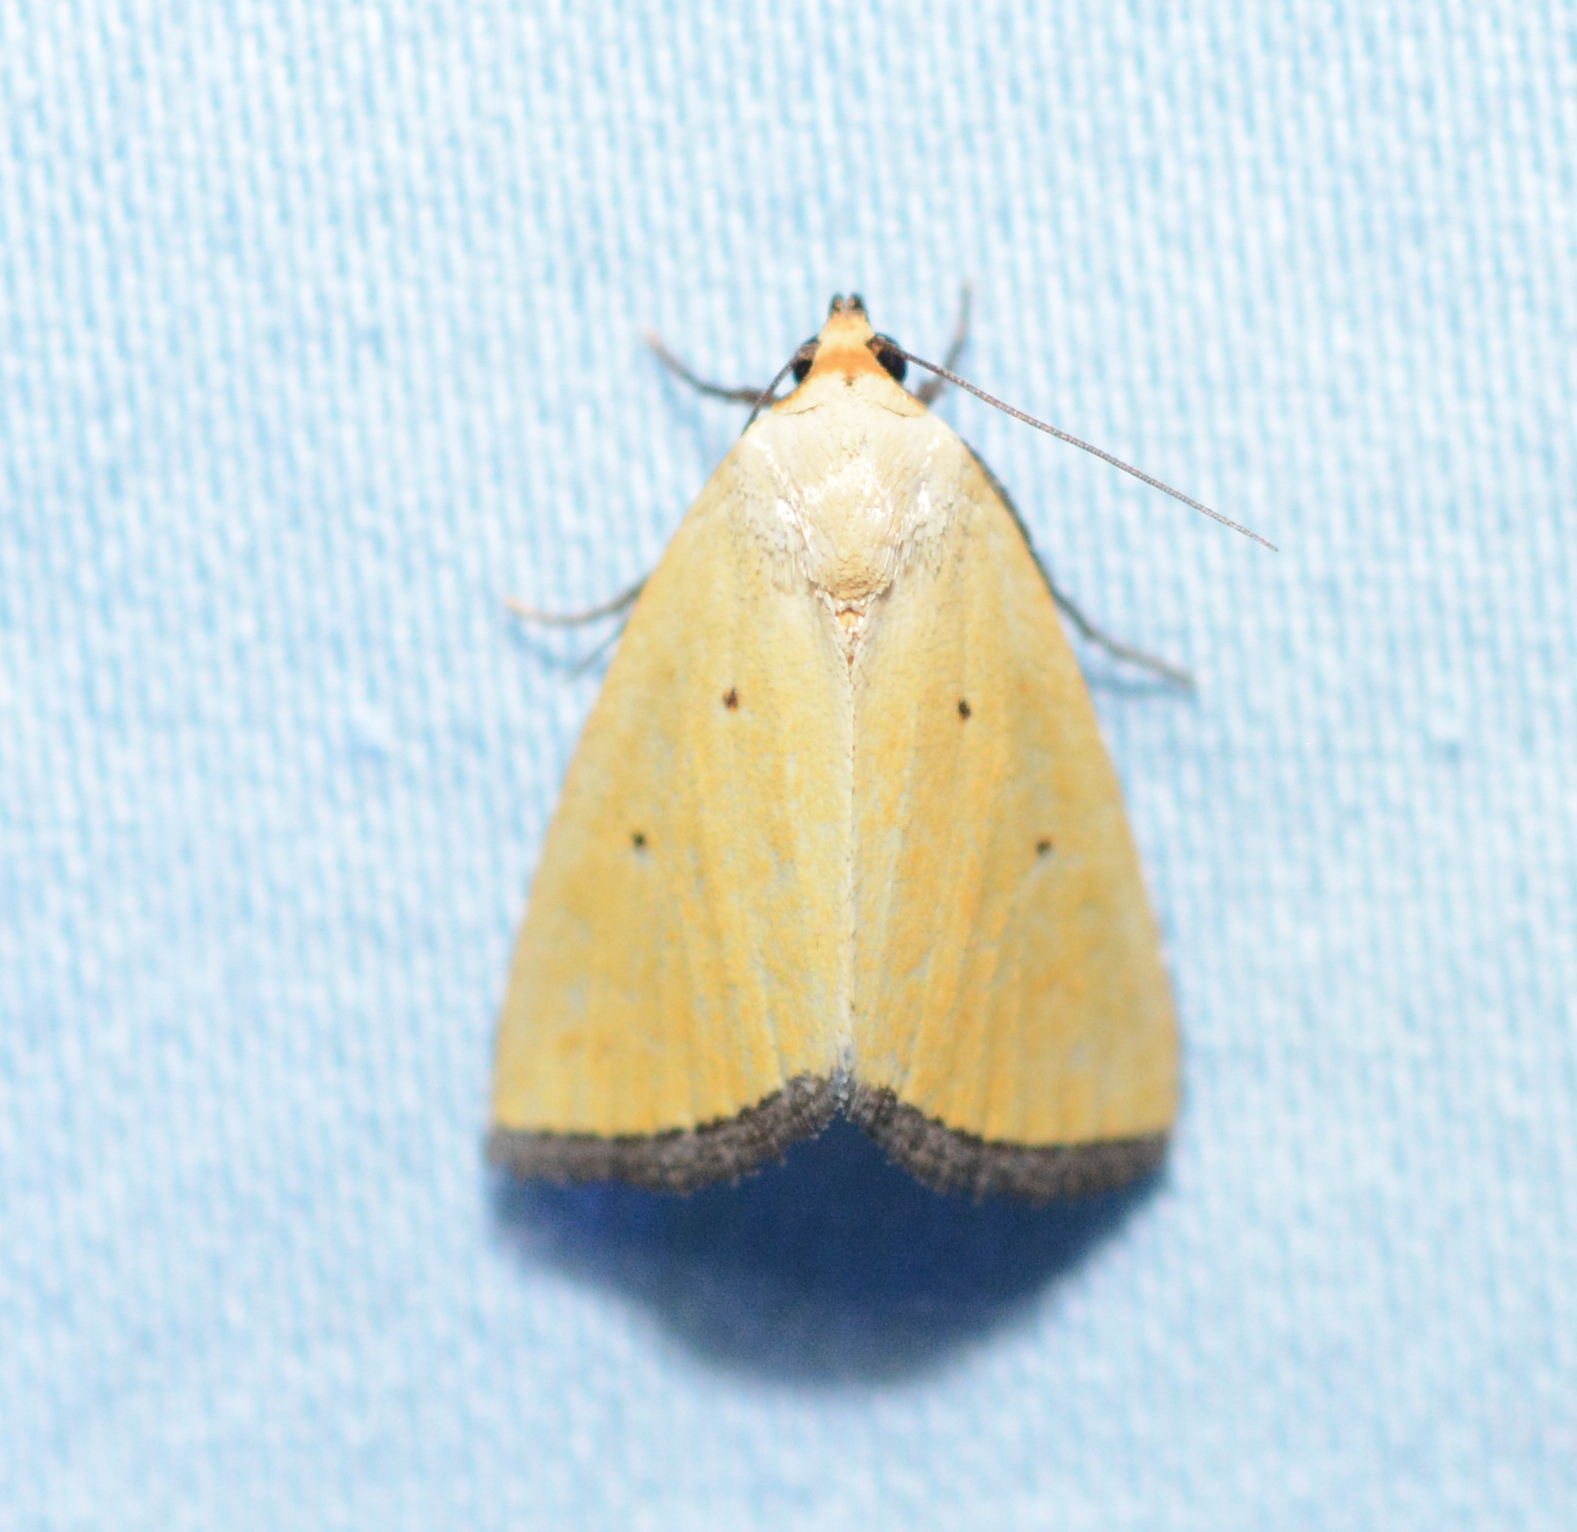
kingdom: Animalia
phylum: Arthropoda
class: Insecta
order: Lepidoptera
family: Noctuidae
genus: Marimatha
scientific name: Marimatha nigrofimbria
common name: Black-bordered lemon moth
